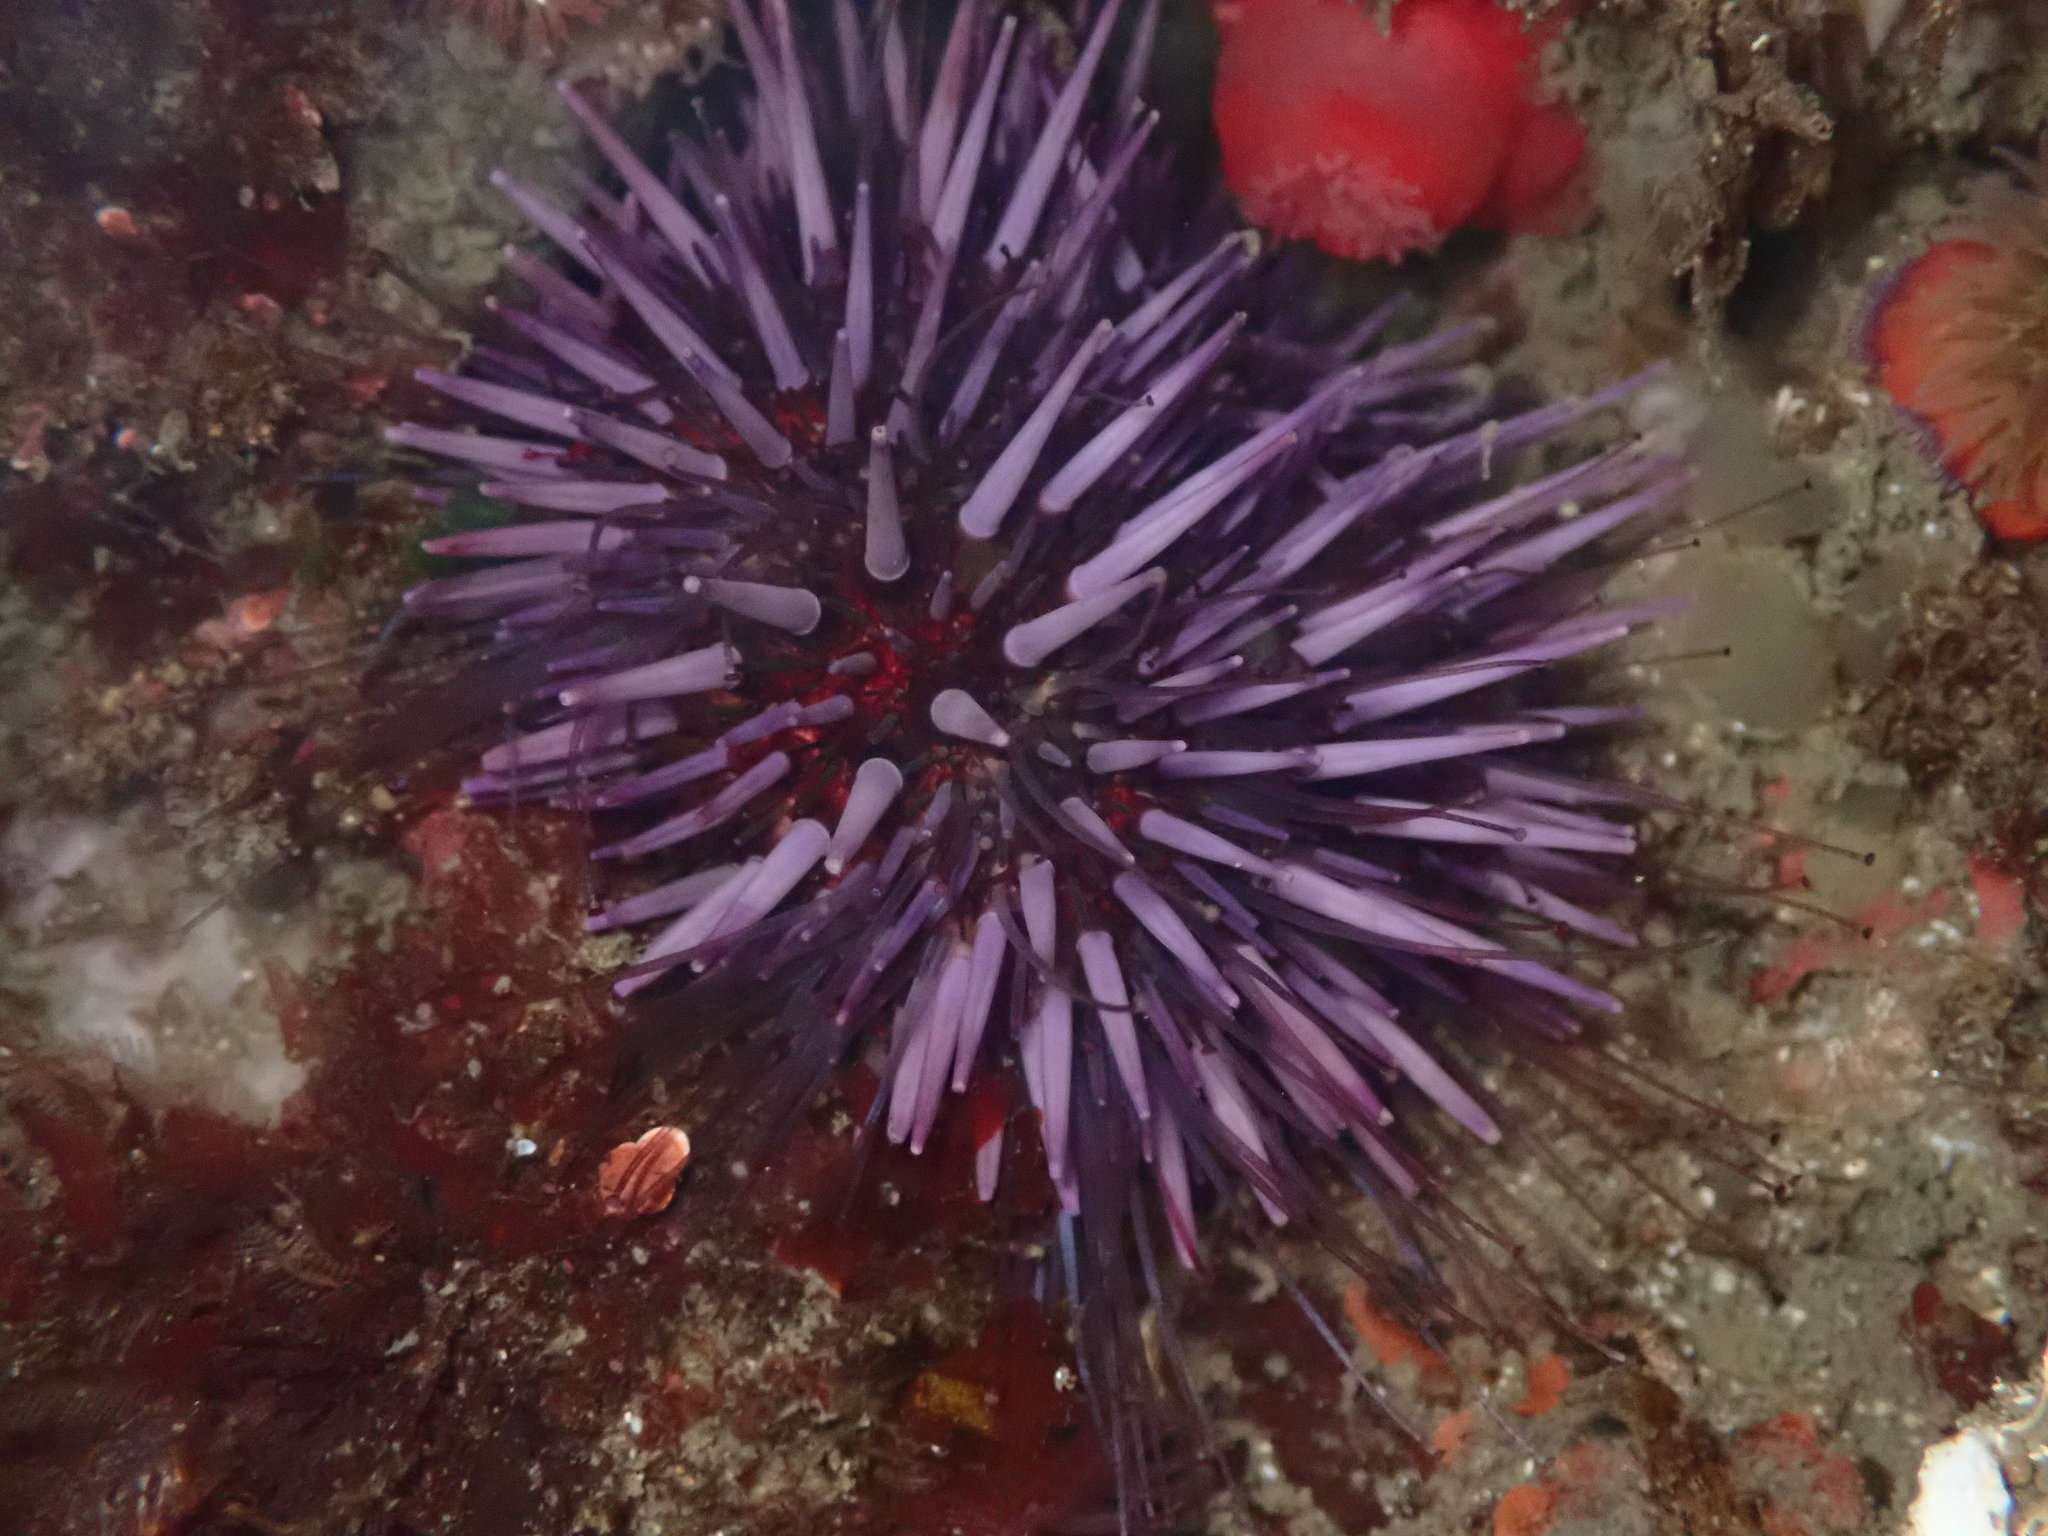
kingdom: Animalia
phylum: Echinodermata
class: Echinoidea
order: Camarodonta
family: Strongylocentrotidae
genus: Strongylocentrotus
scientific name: Strongylocentrotus purpuratus
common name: Purple sea urchin
